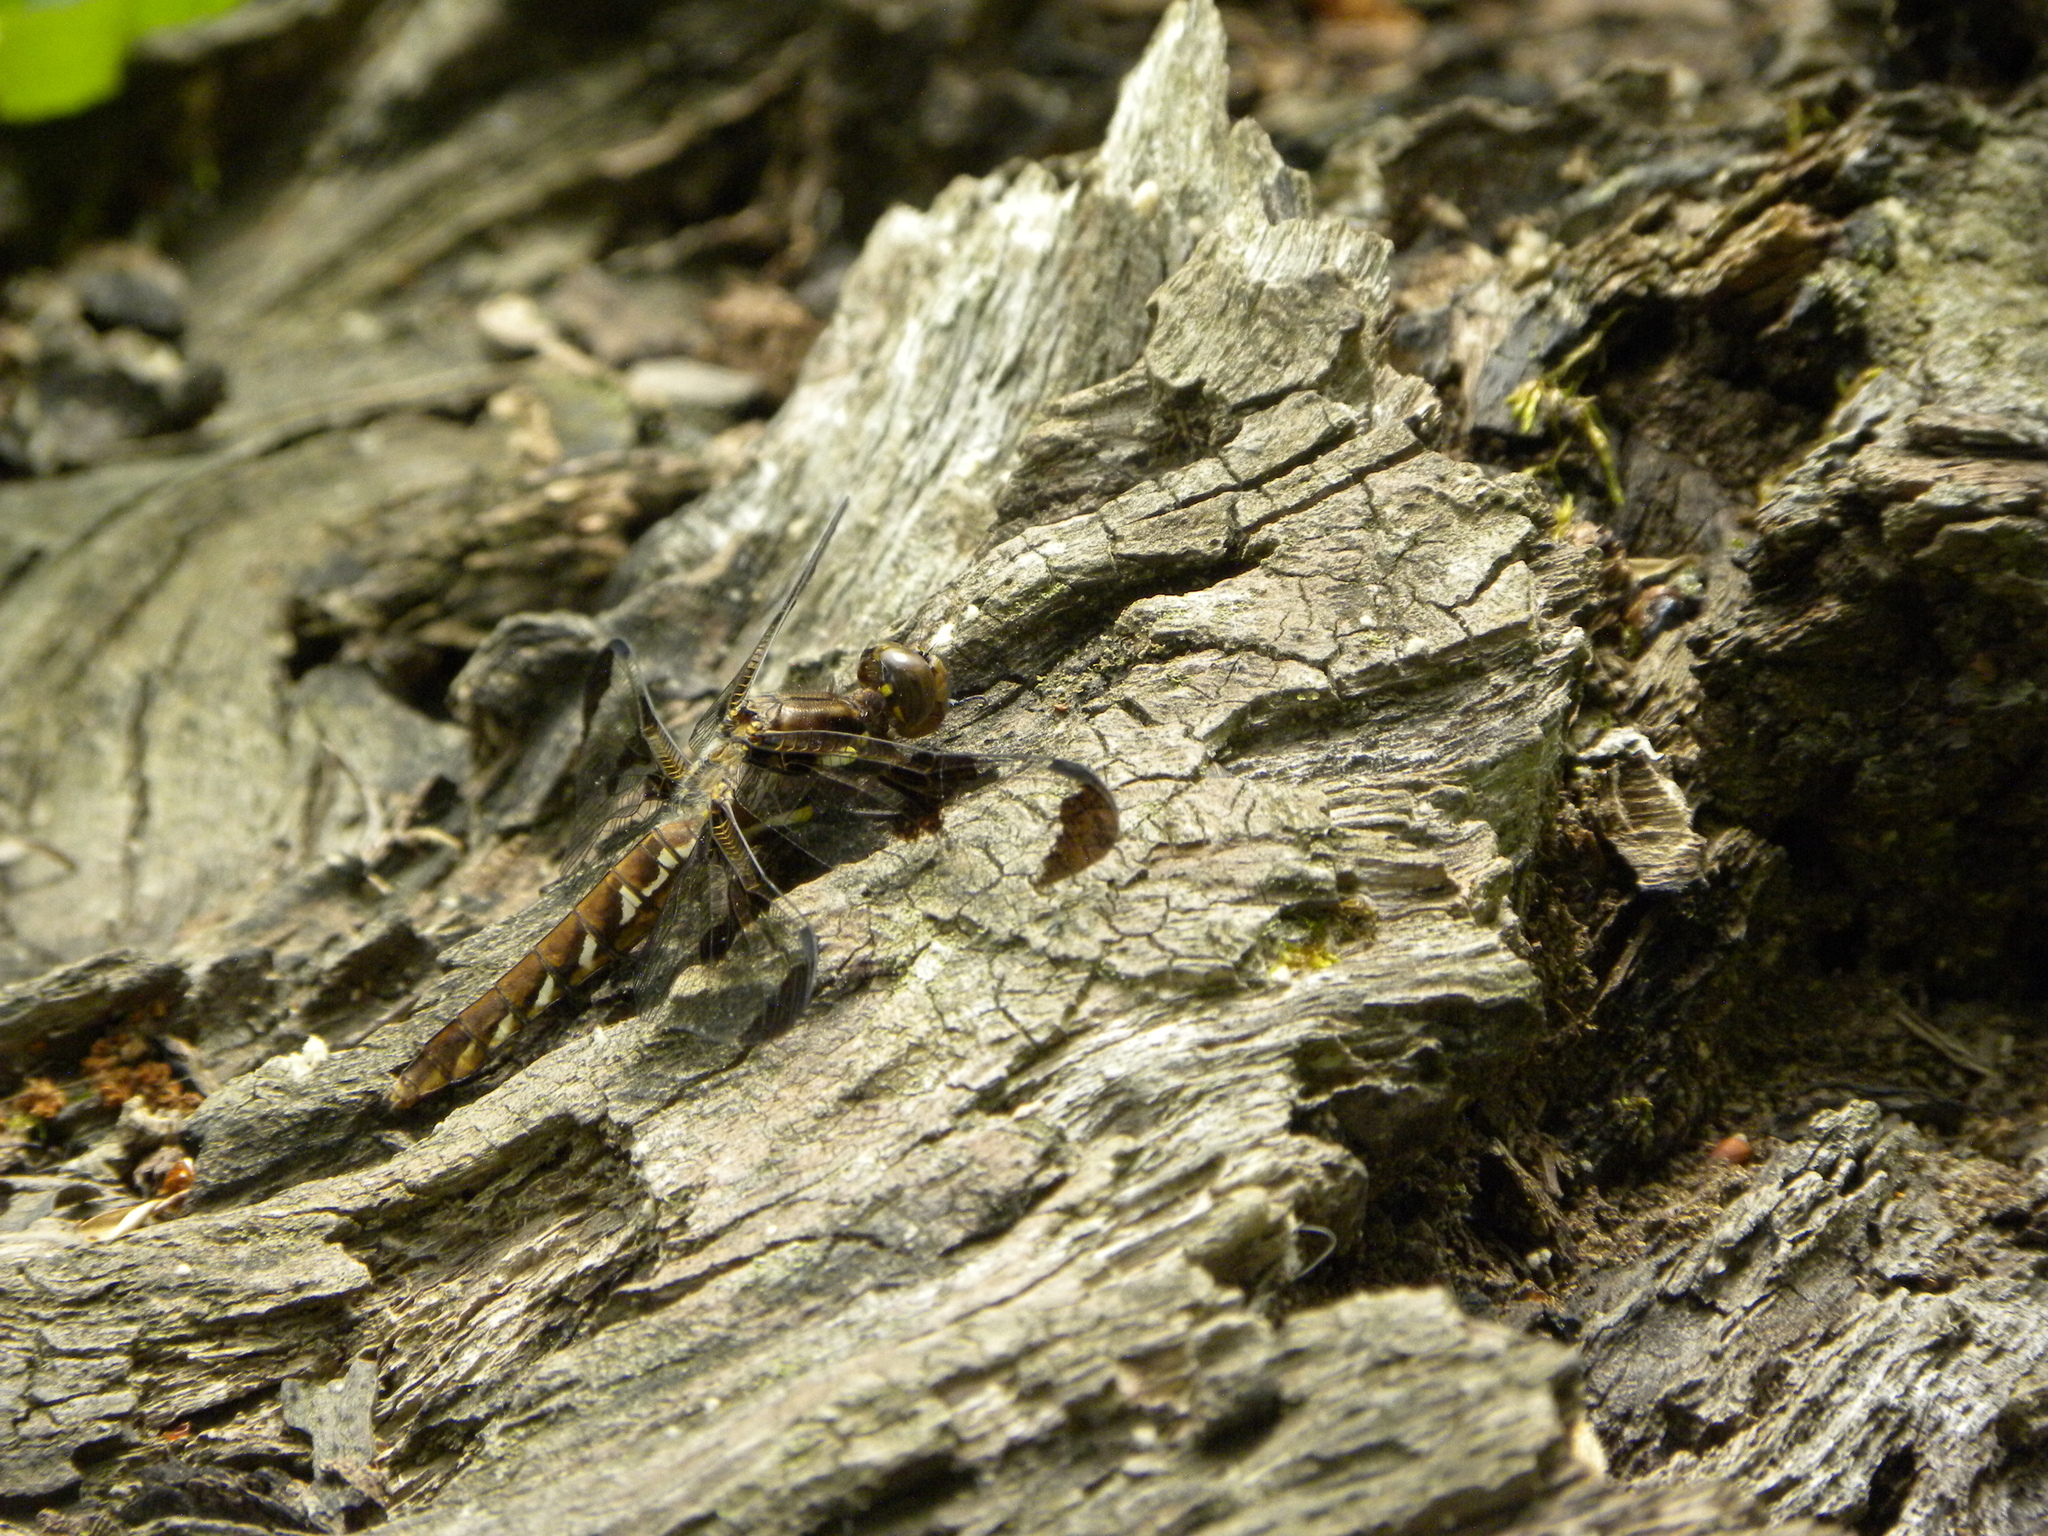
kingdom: Animalia
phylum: Arthropoda
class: Insecta
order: Odonata
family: Libellulidae
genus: Plathemis
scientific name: Plathemis lydia
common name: Common whitetail
